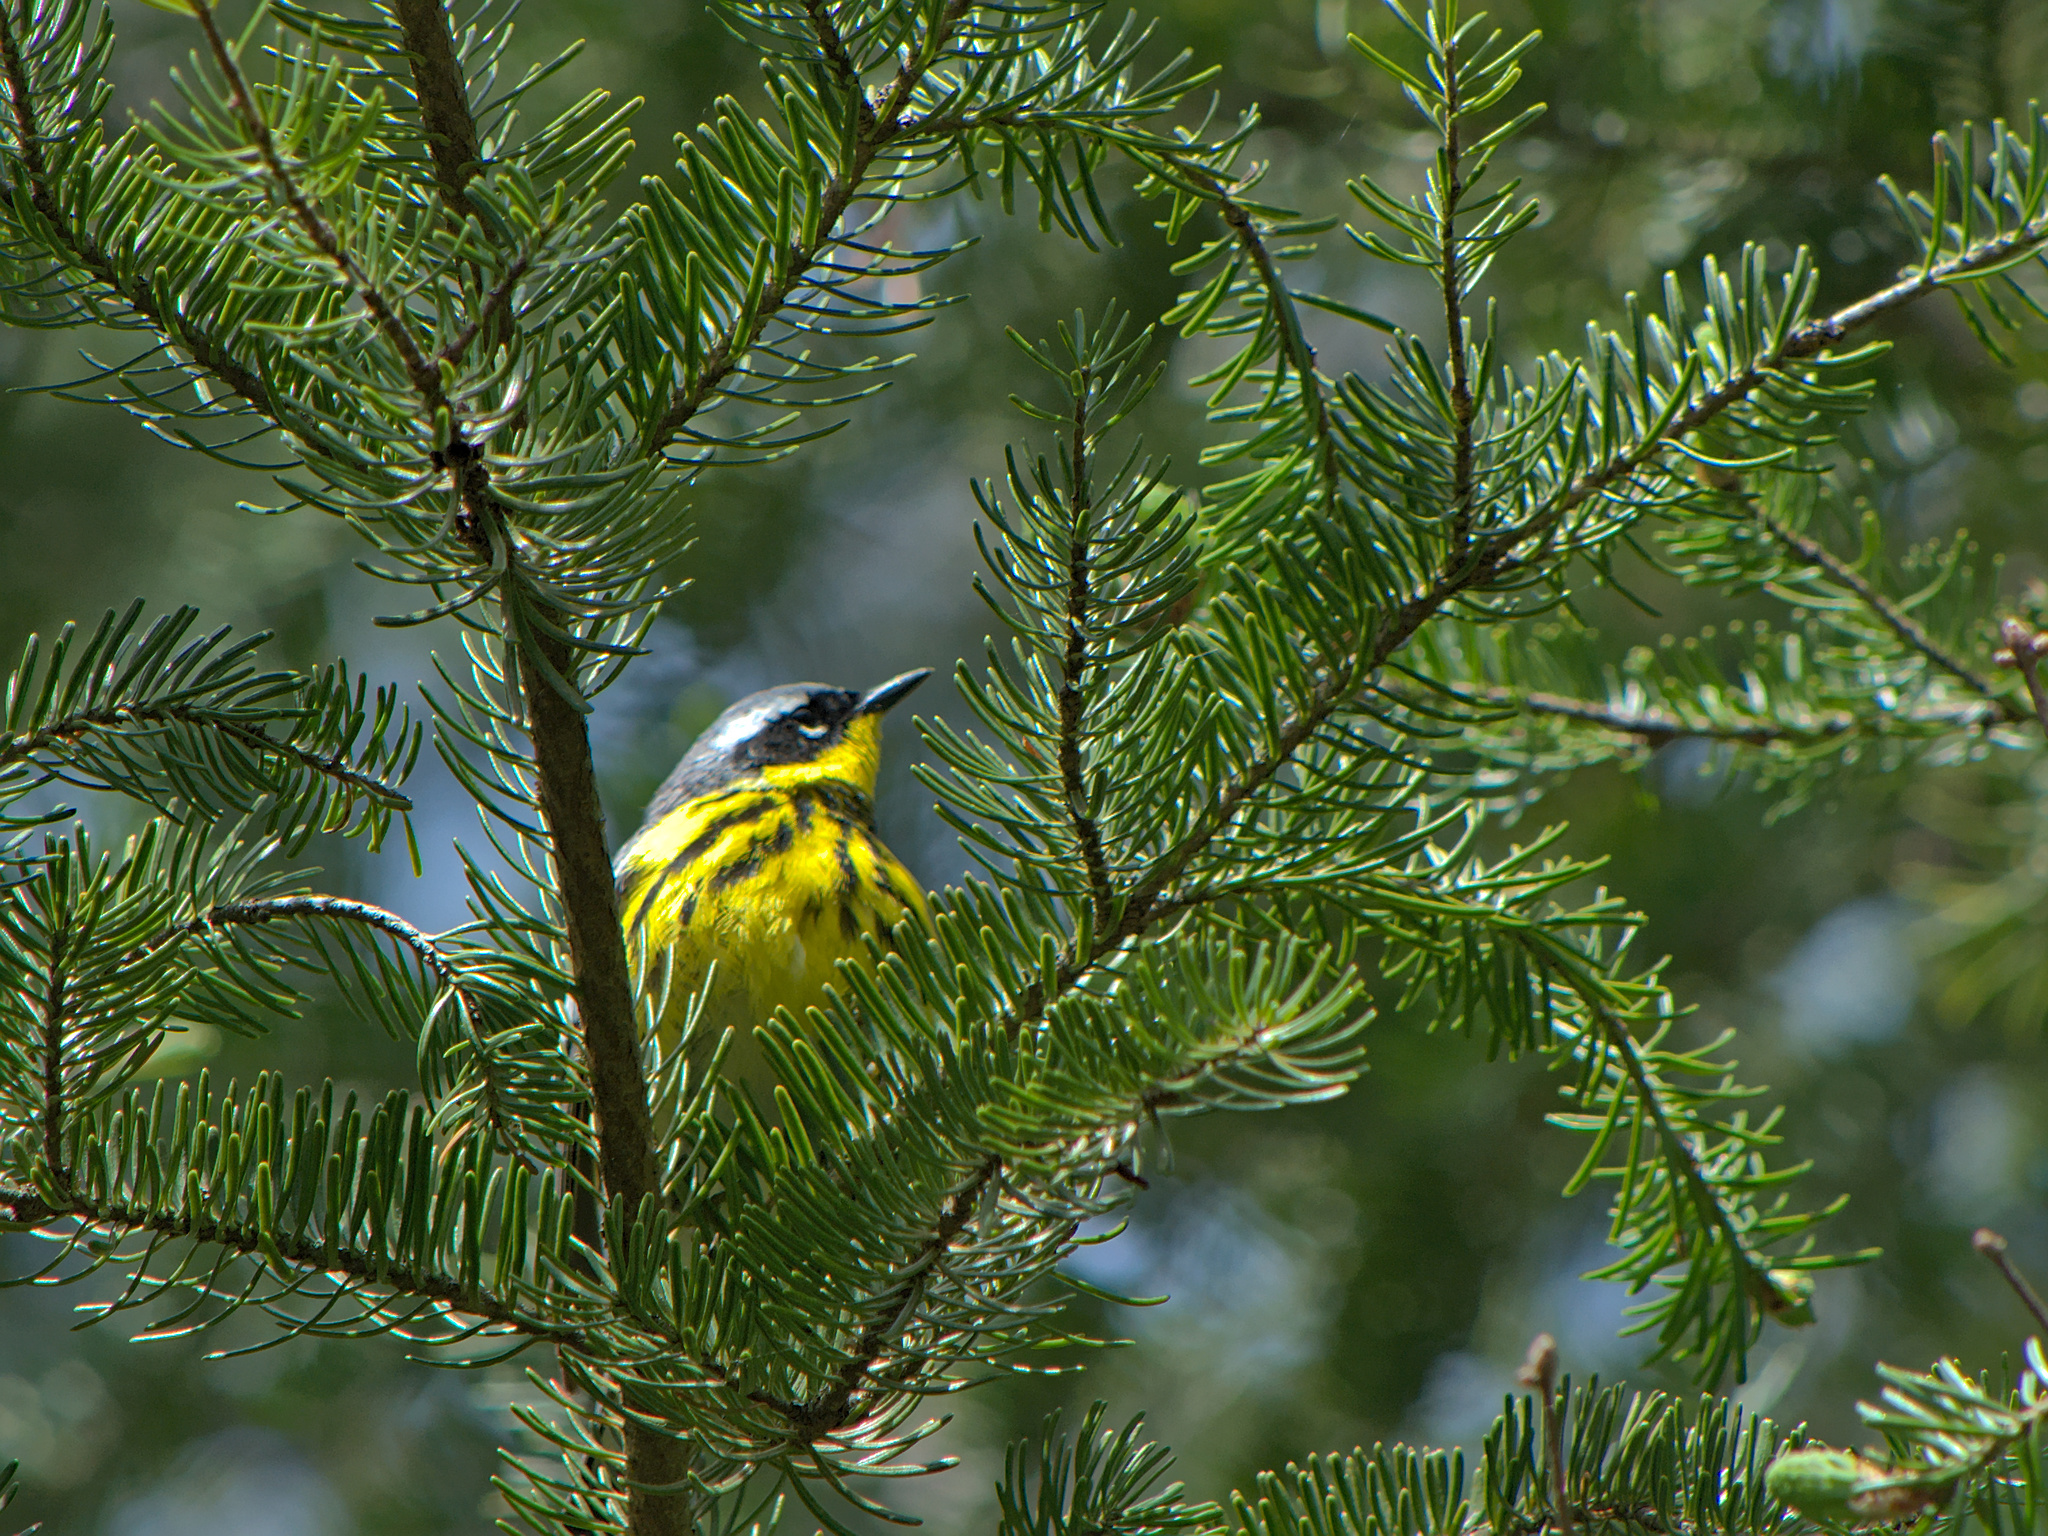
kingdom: Animalia
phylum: Chordata
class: Aves
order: Passeriformes
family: Parulidae
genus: Setophaga
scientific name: Setophaga magnolia
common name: Magnolia warbler
